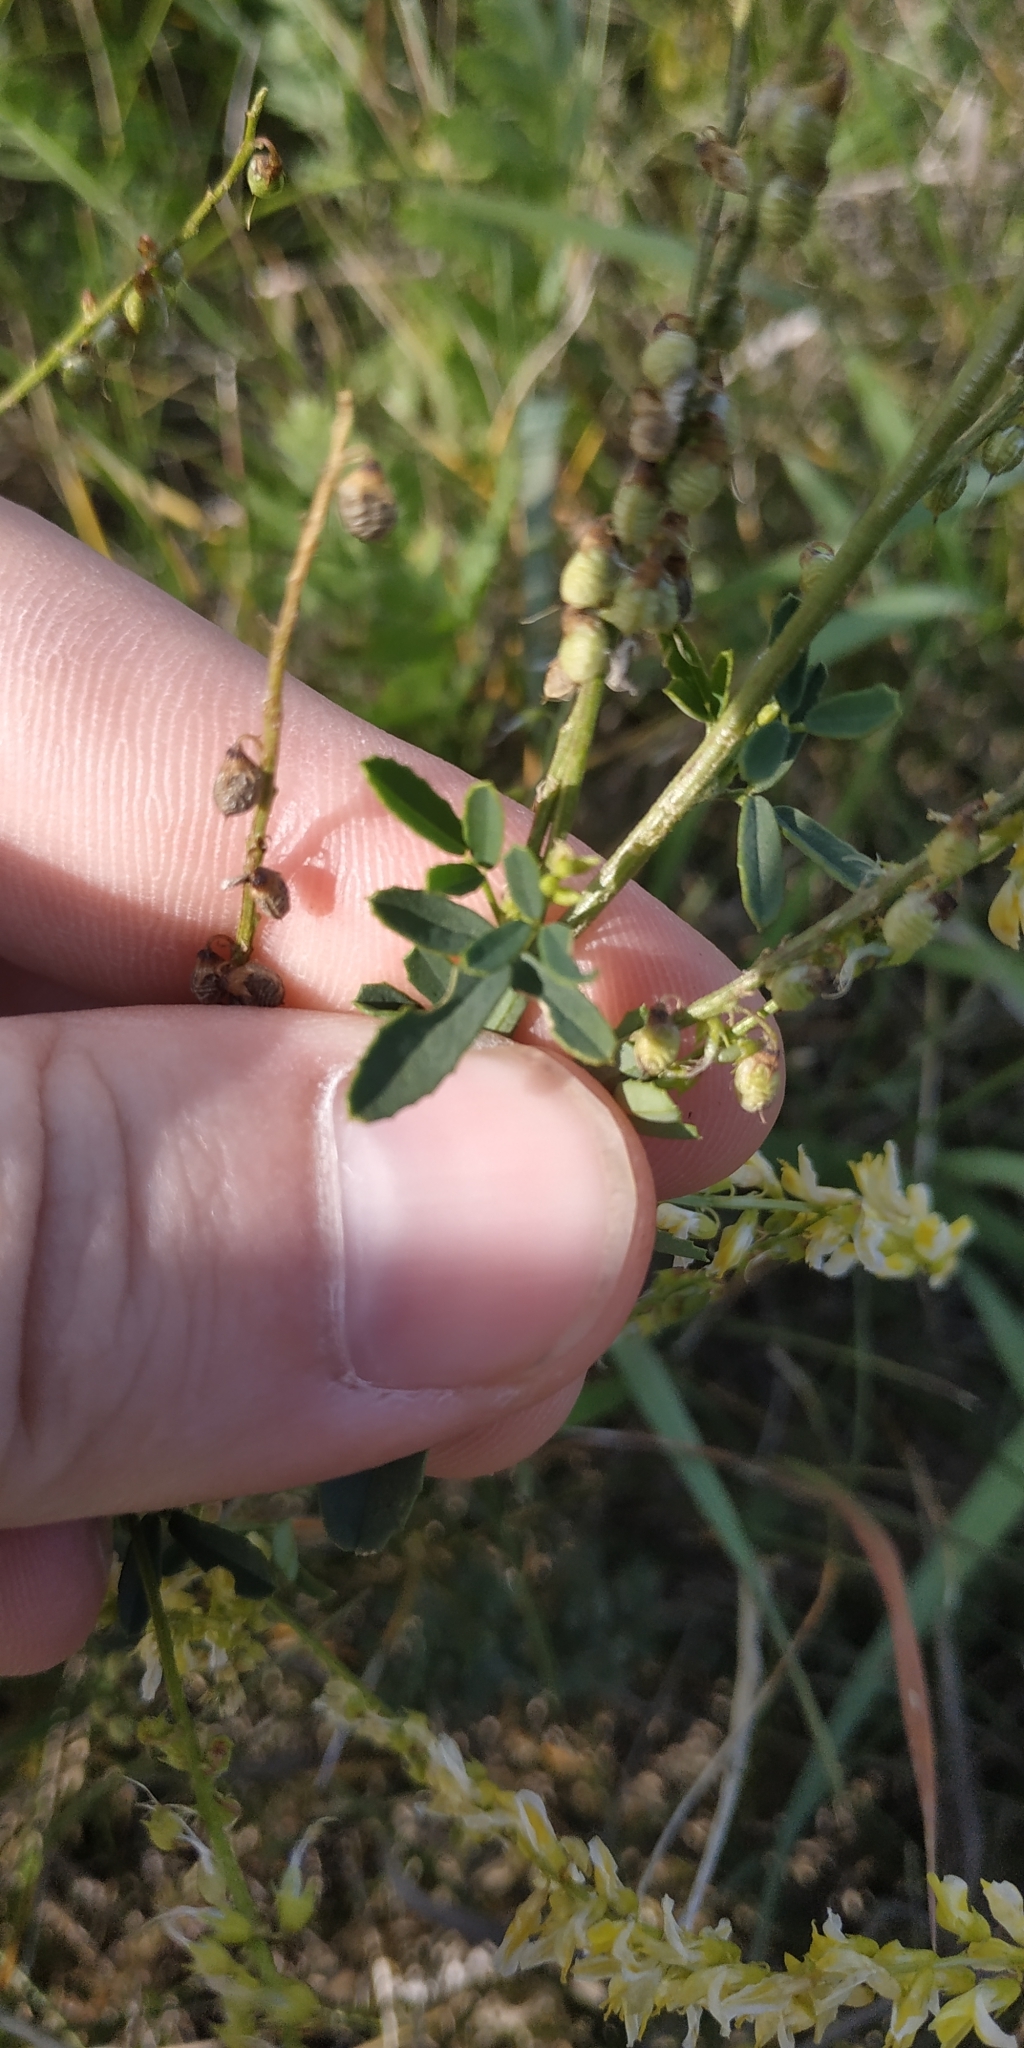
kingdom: Plantae
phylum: Tracheophyta
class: Magnoliopsida
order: Fabales
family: Fabaceae
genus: Melilotus
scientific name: Melilotus officinalis
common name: Sweetclover
